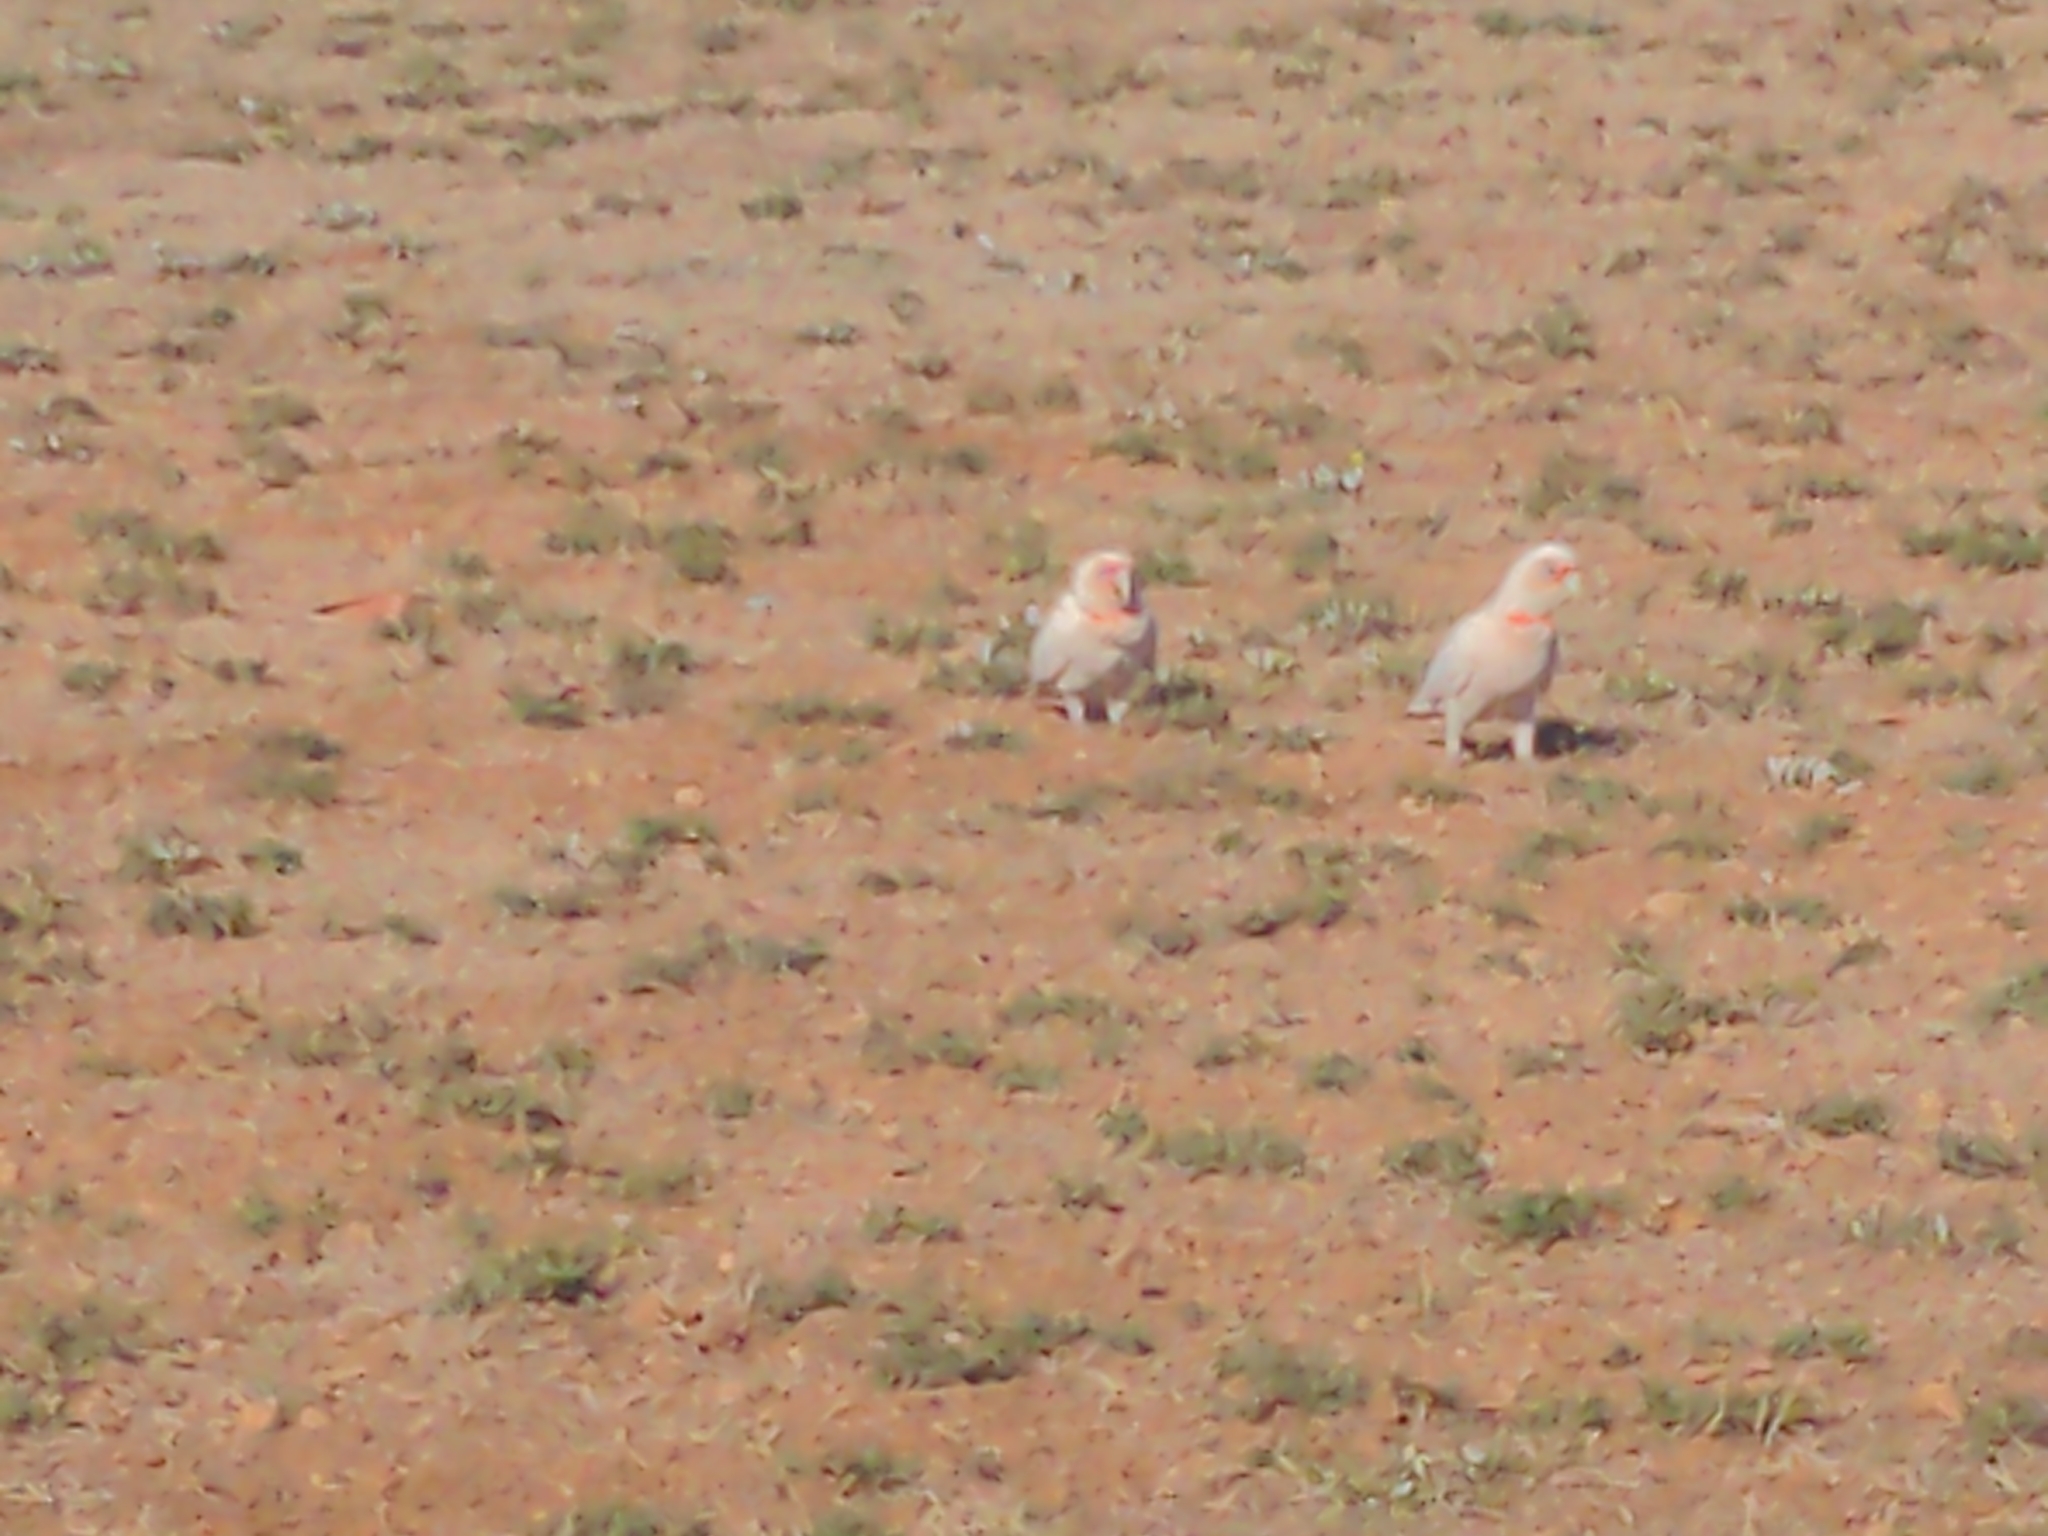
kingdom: Animalia
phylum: Chordata
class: Aves
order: Psittaciformes
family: Psittacidae
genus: Cacatua
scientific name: Cacatua tenuirostris
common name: Long-billed corella
